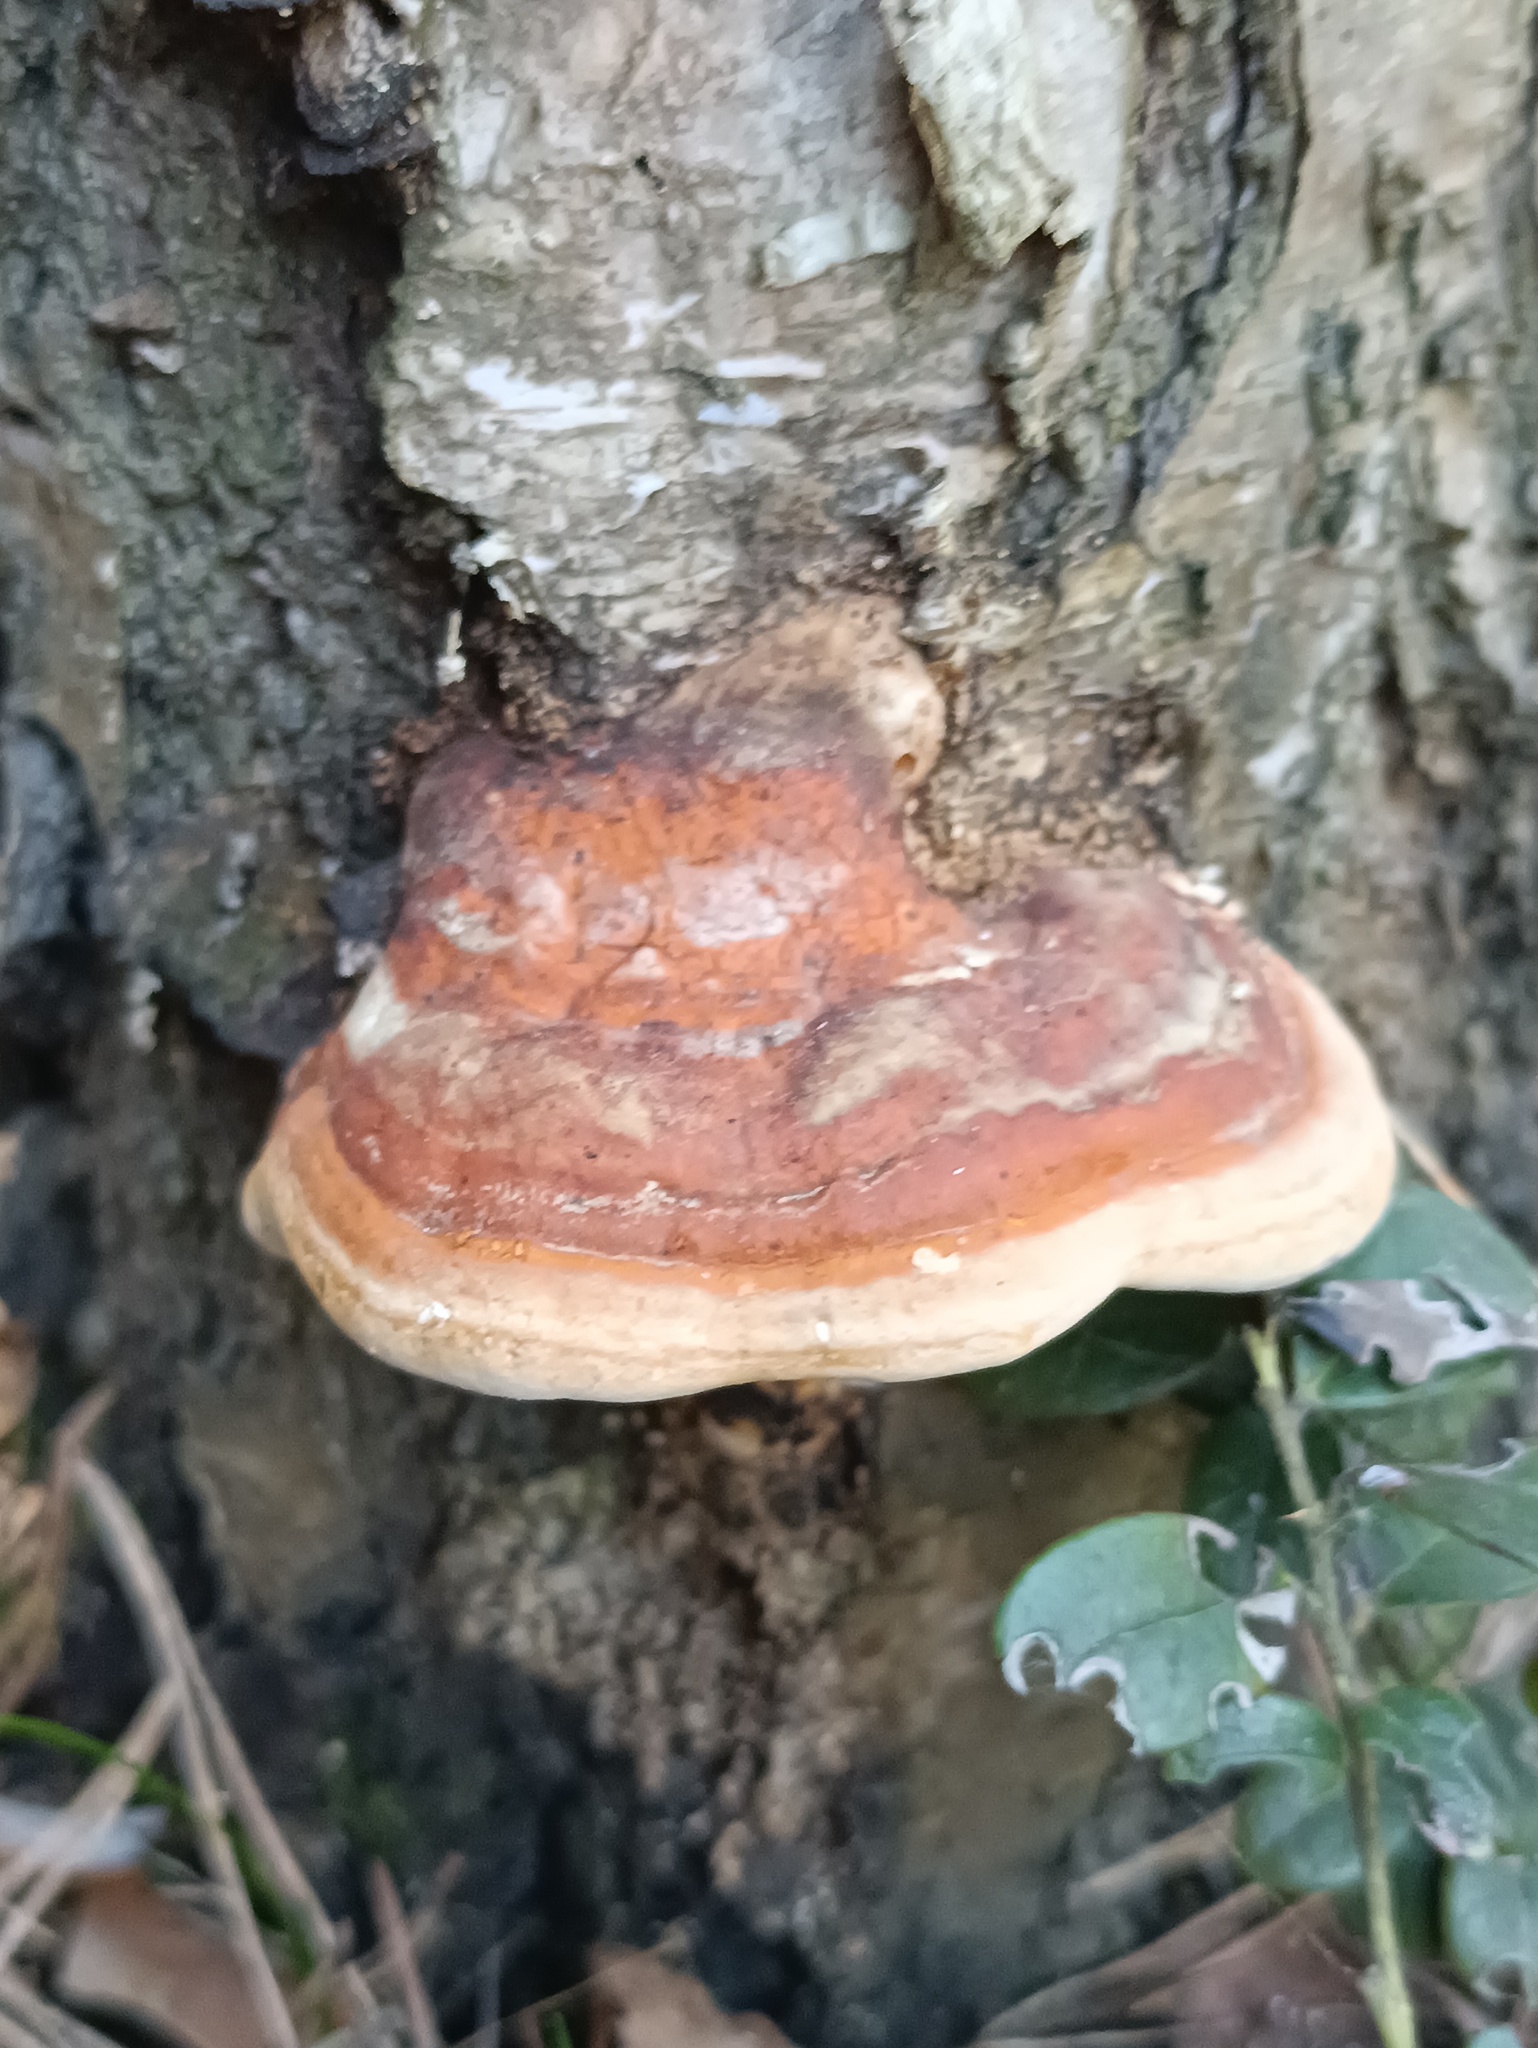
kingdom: Fungi
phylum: Basidiomycota
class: Agaricomycetes
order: Polyporales
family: Fomitopsidaceae
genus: Fomitopsis
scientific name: Fomitopsis pinicola
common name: Red-belted bracket
